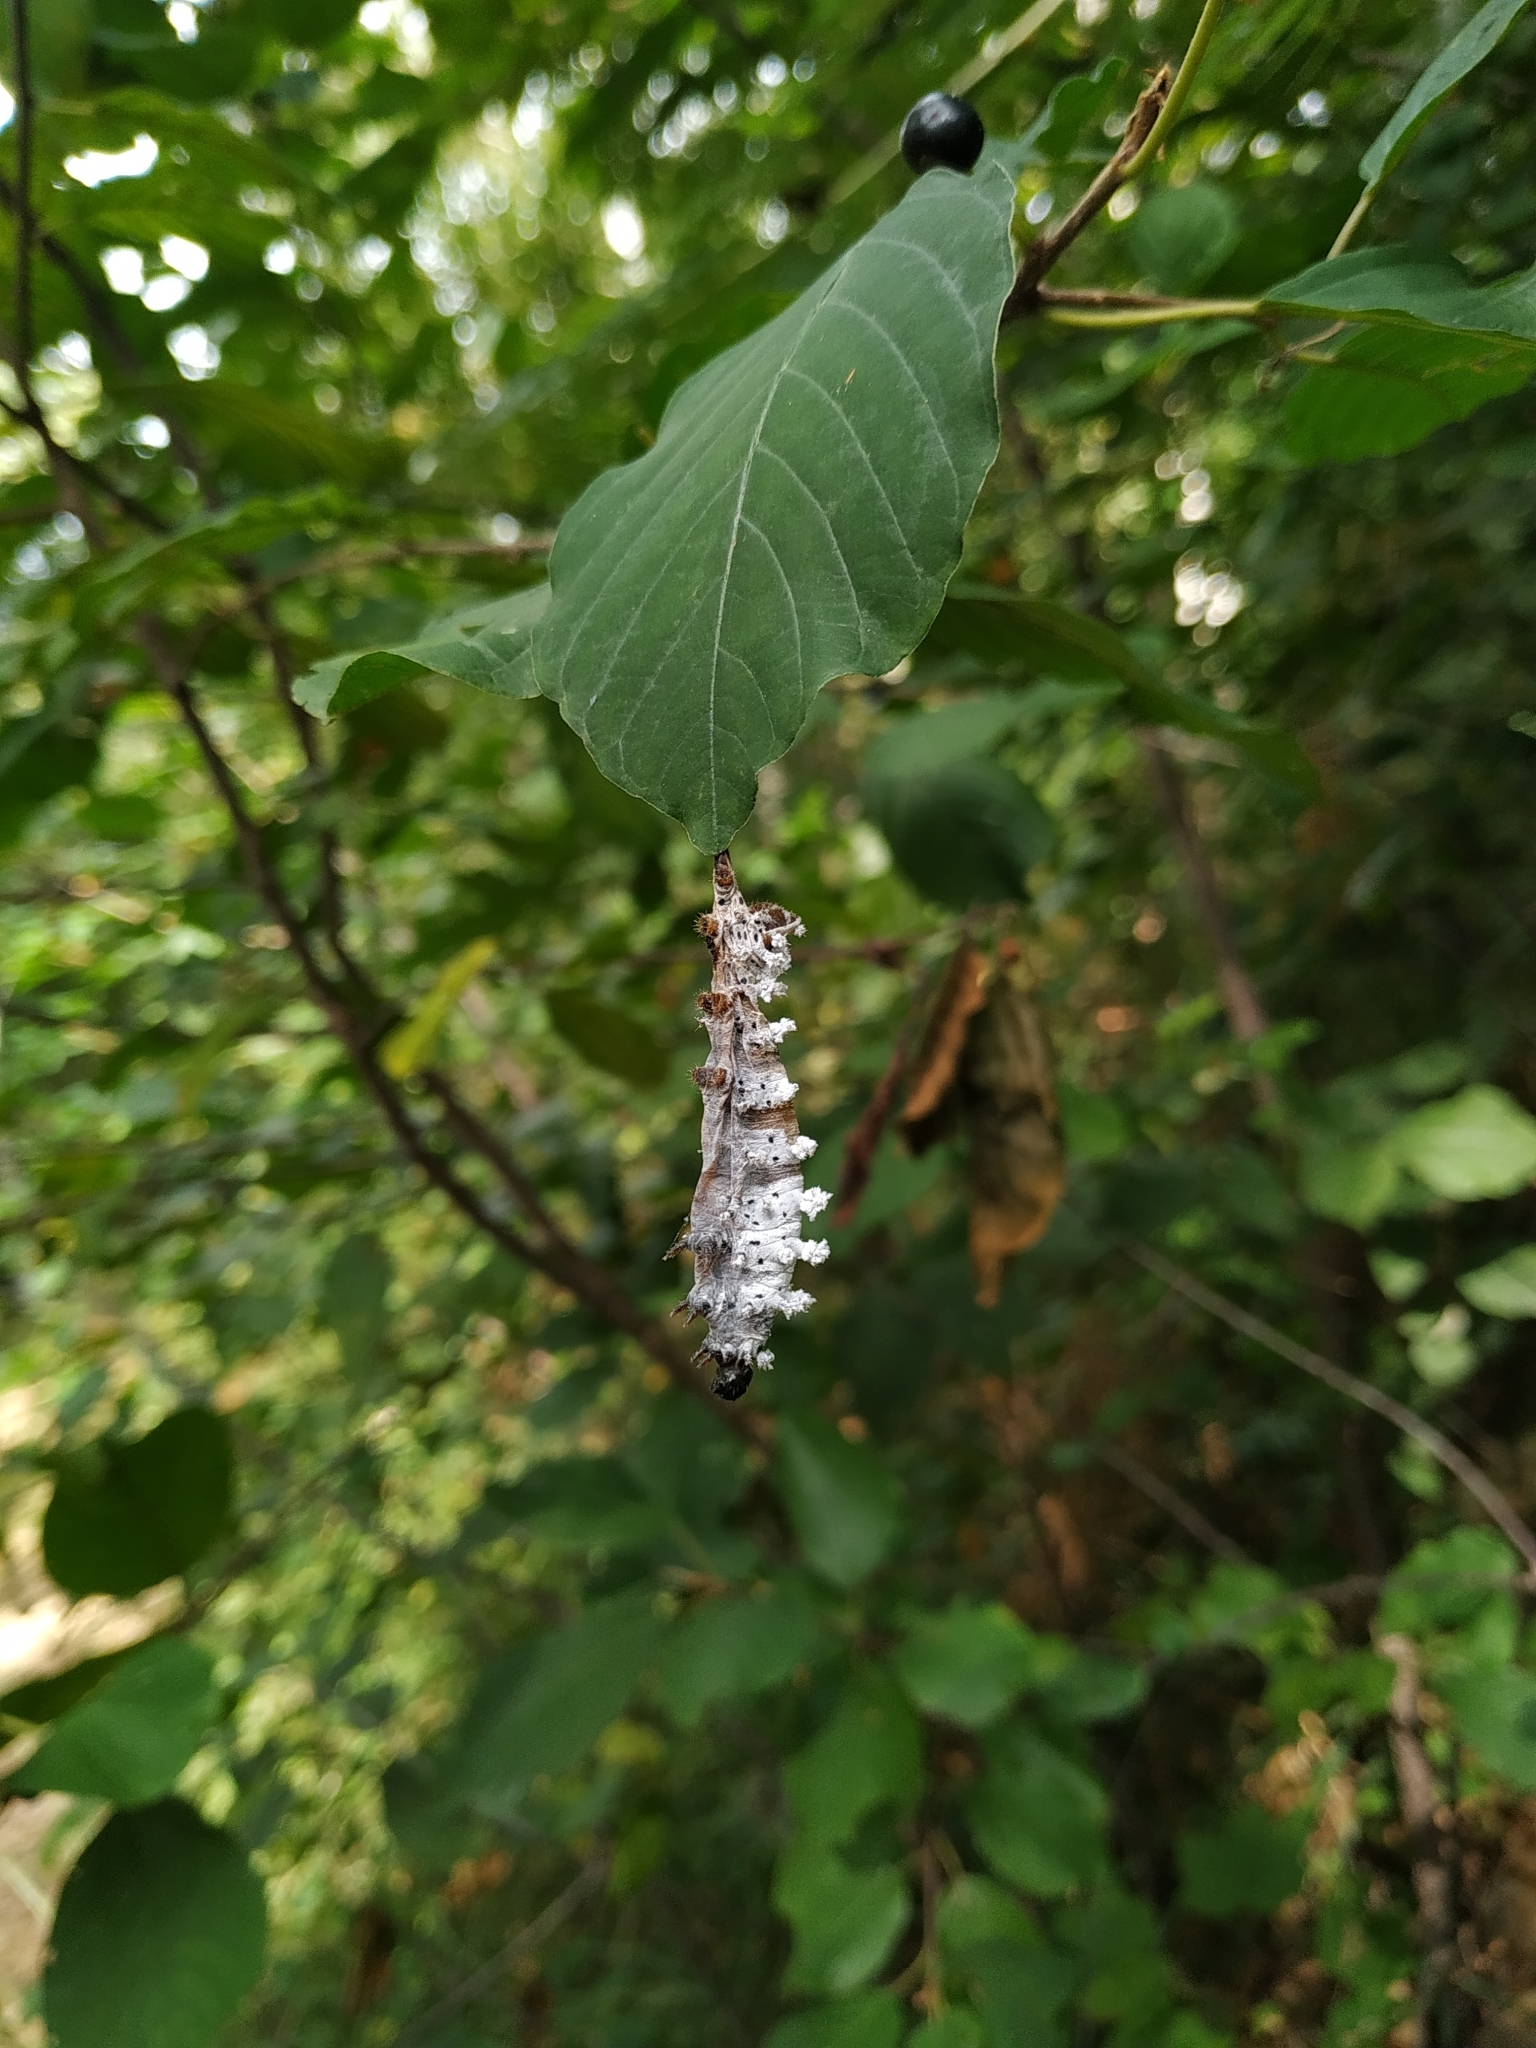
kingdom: Animalia
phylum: Arthropoda
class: Insecta
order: Lepidoptera
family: Saturniidae
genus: Samia
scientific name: Samia cynthia
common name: Ailanthus silkmoth
